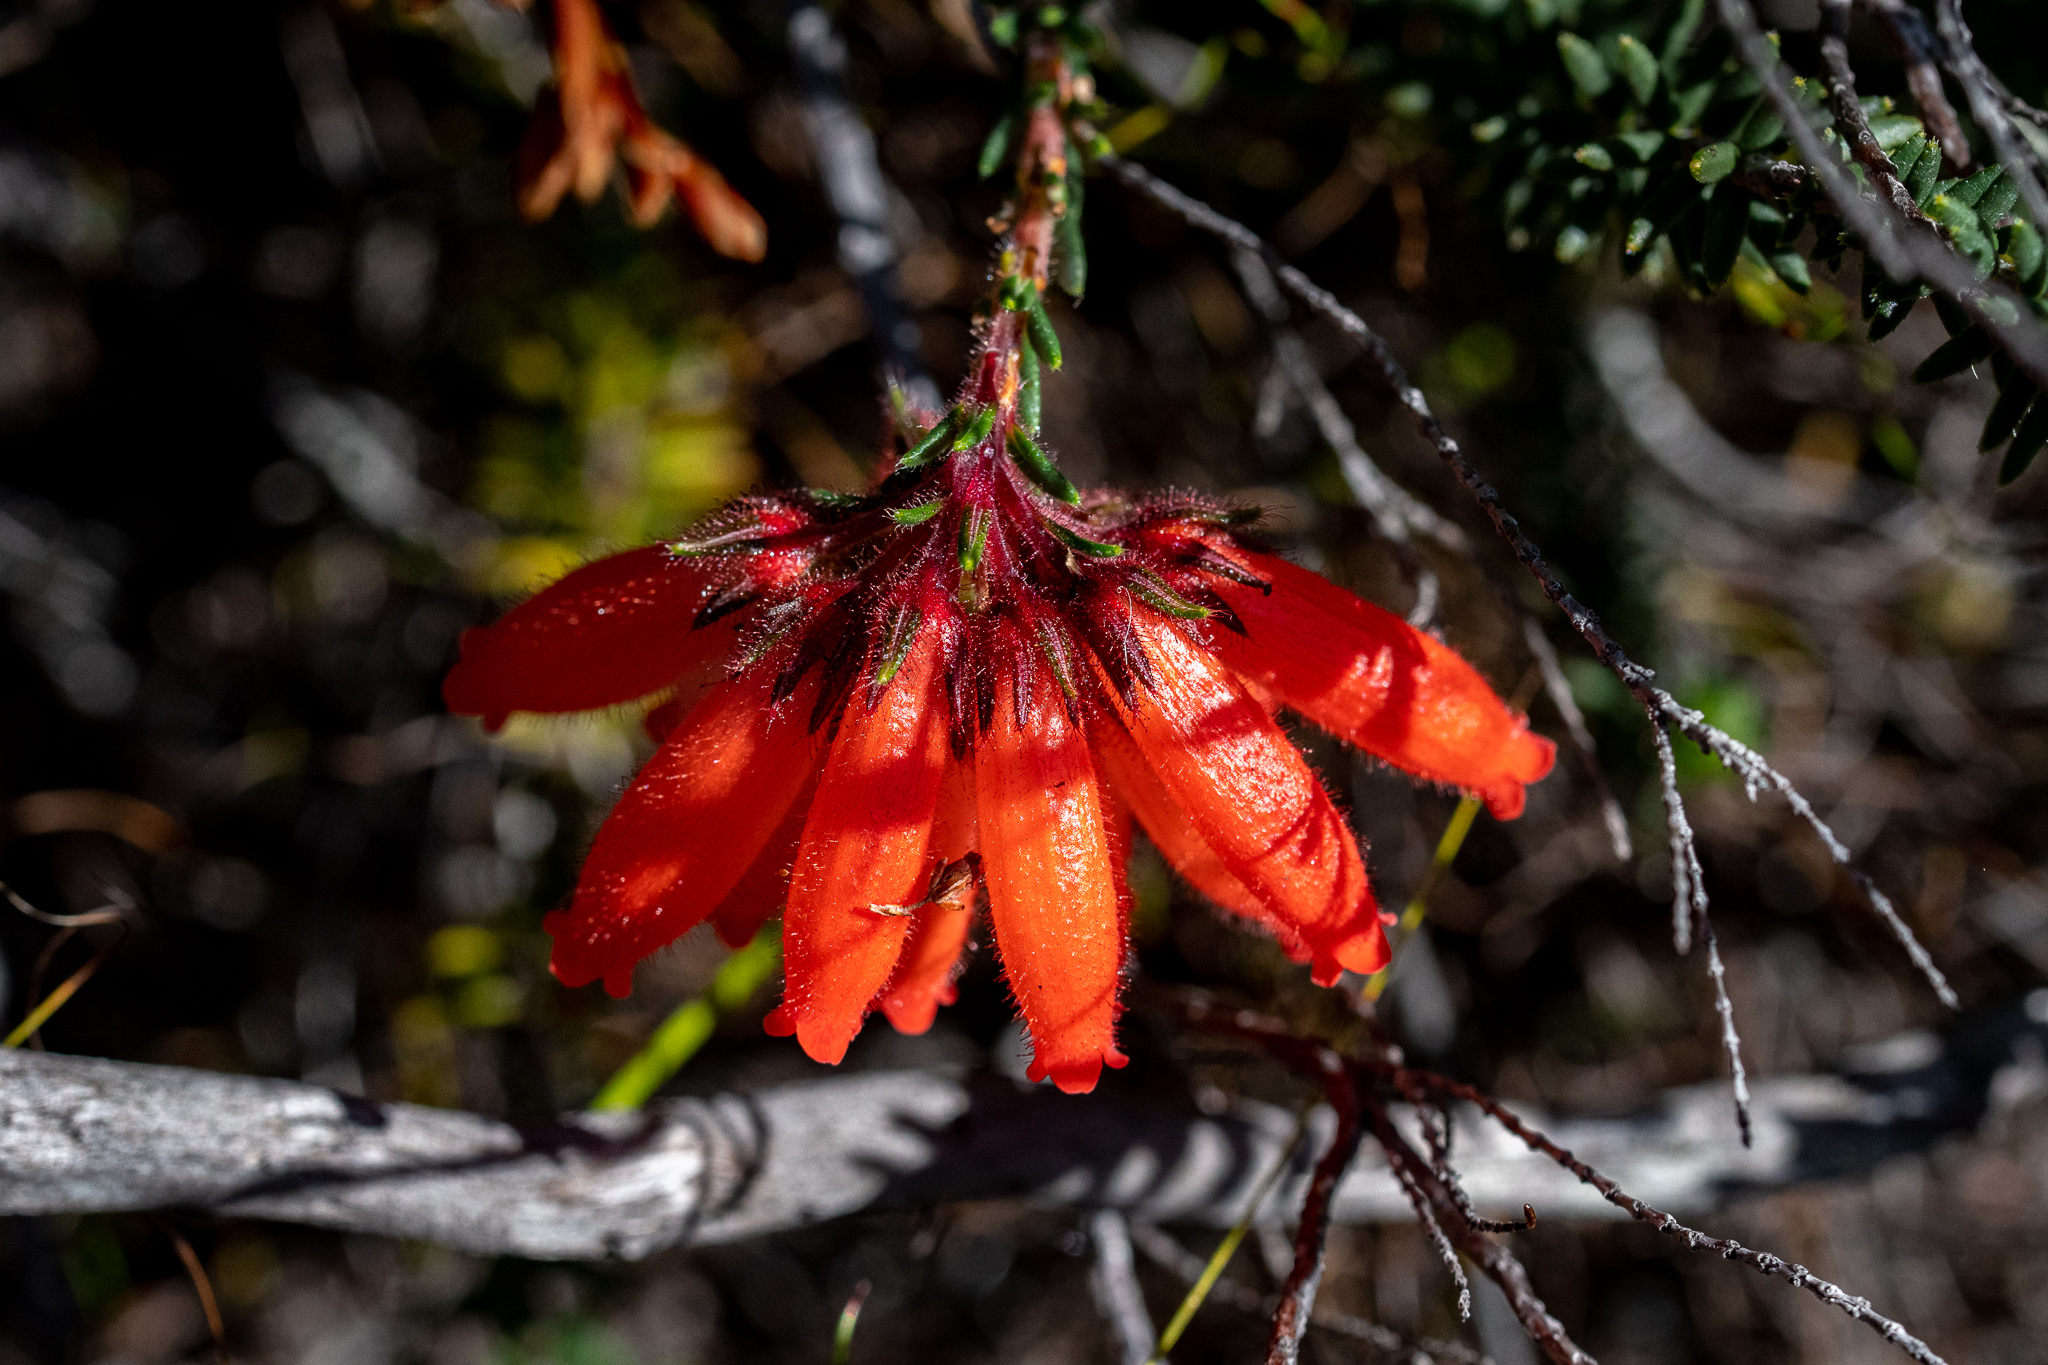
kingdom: Plantae
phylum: Tracheophyta
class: Magnoliopsida
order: Ericales
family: Ericaceae
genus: Erica
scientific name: Erica cerinthoides
